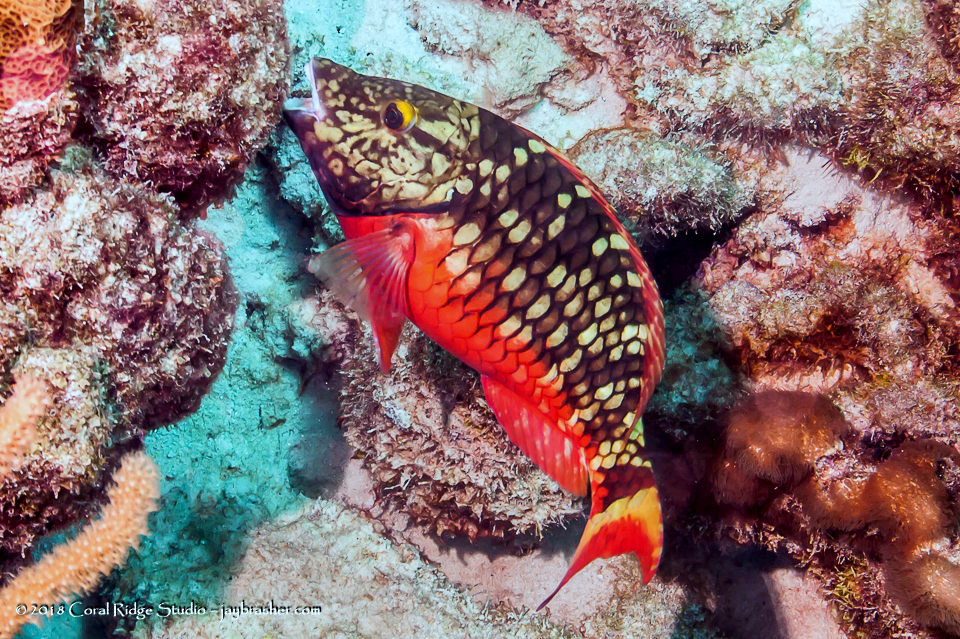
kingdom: Animalia
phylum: Chordata
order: Perciformes
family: Scaridae
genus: Sparisoma
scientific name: Sparisoma viride
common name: Stoplight parrotfish
